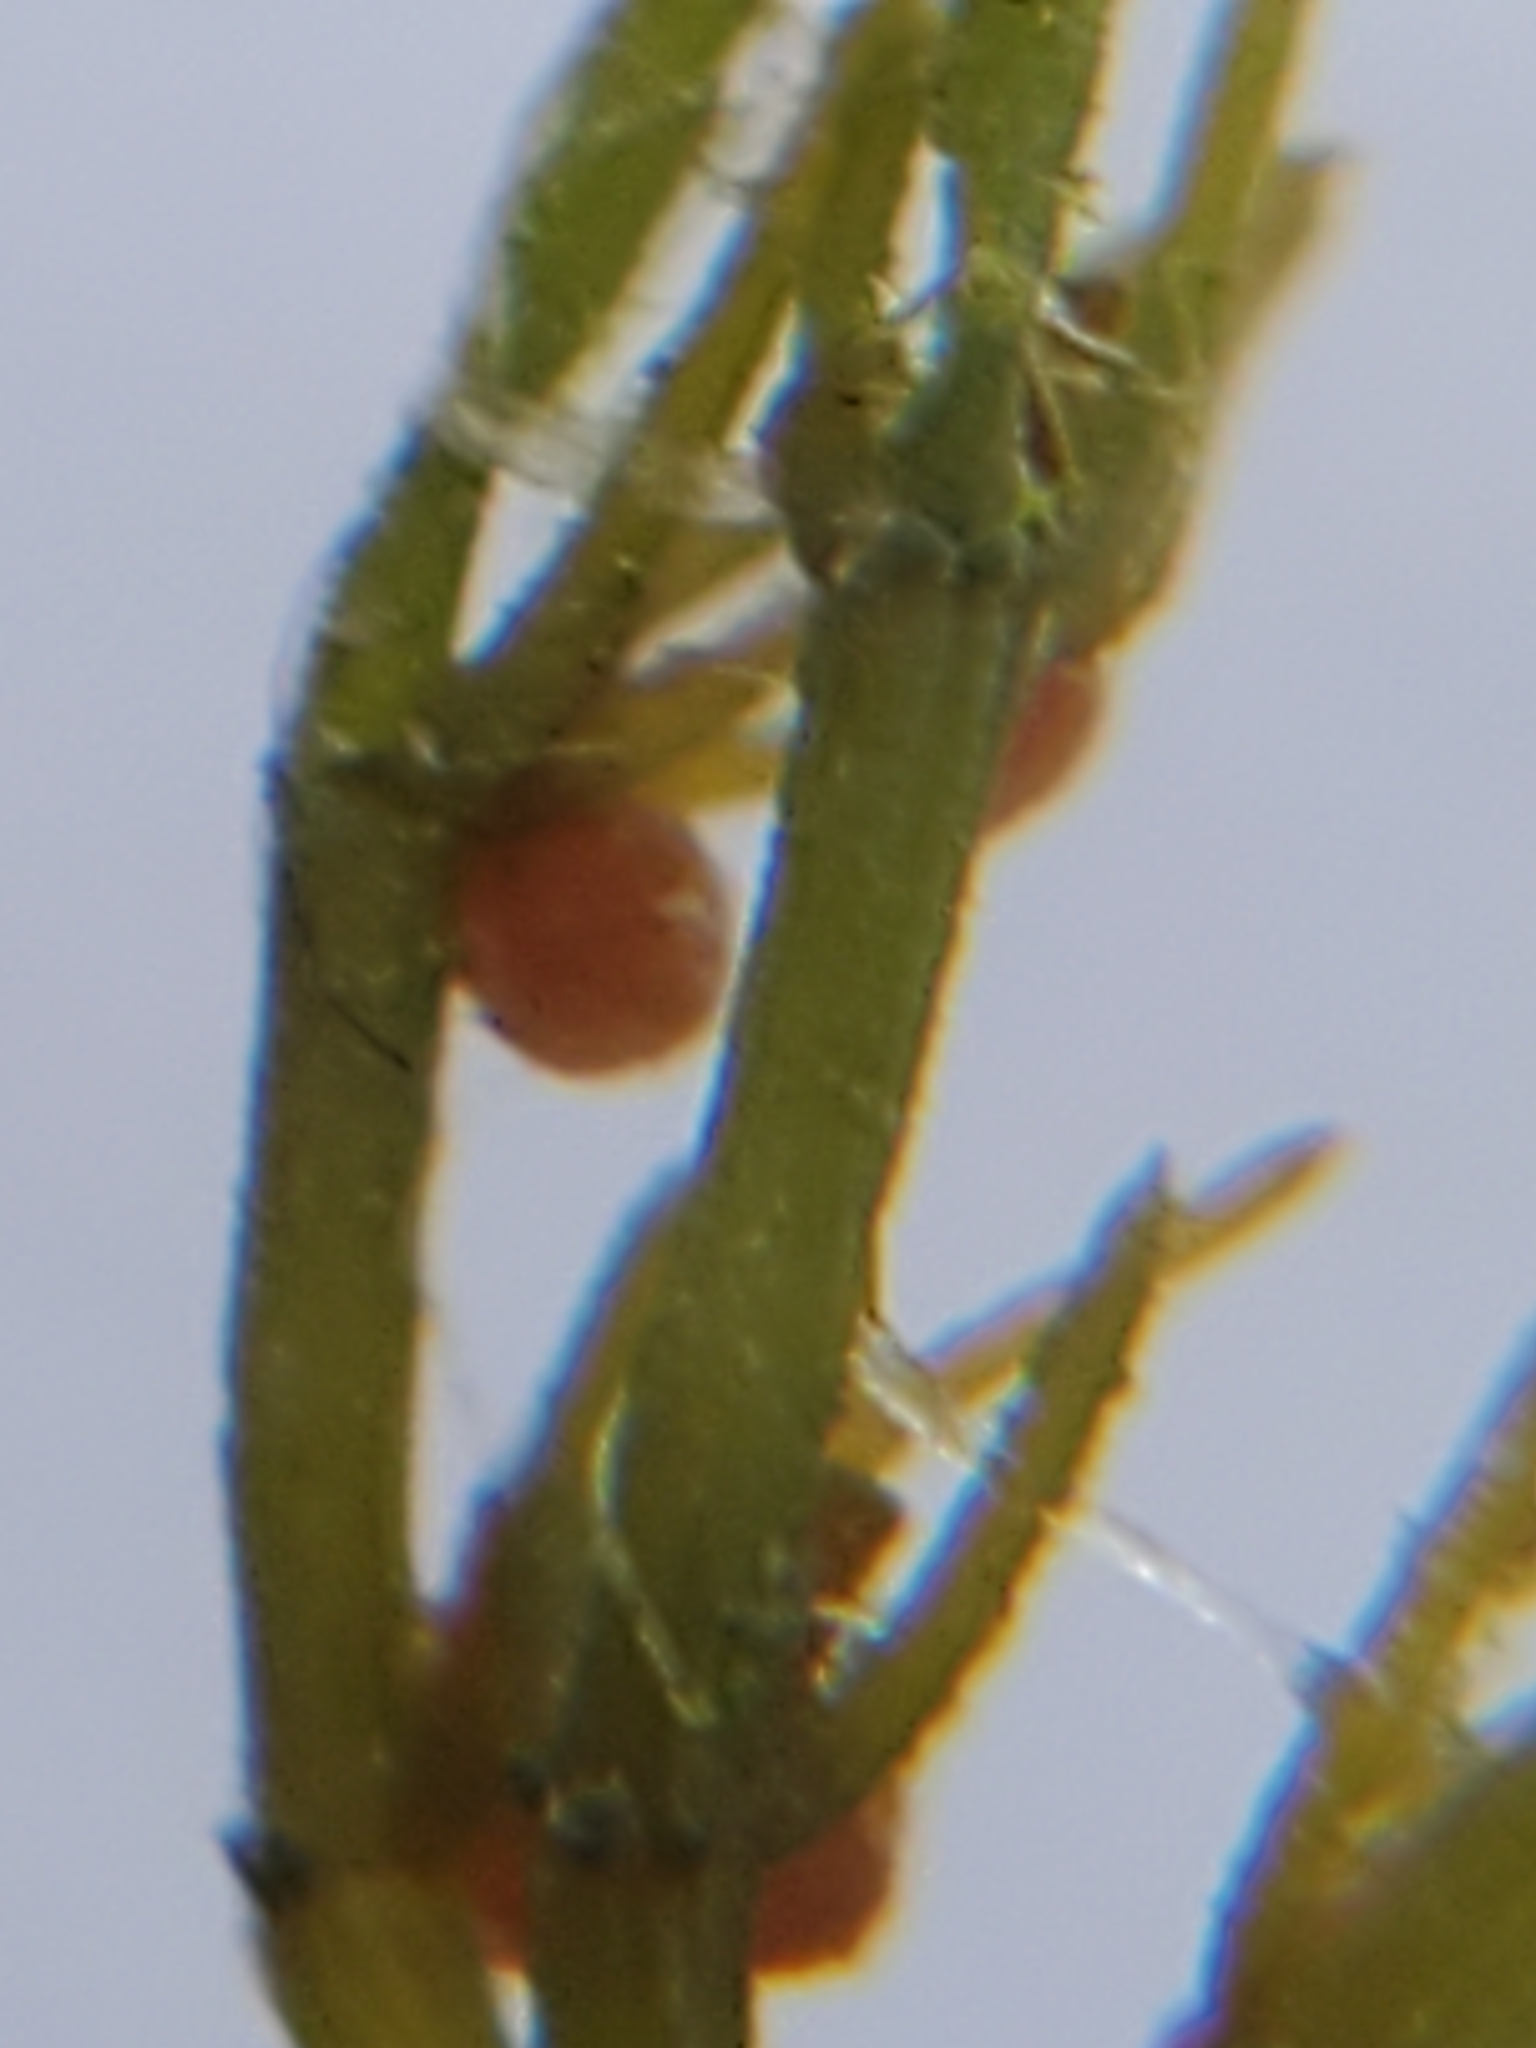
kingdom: Plantae
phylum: Charophyta
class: Charophyceae
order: Charales
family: Characeae
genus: Chara
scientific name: Chara contraria
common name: Opposite stonewort
